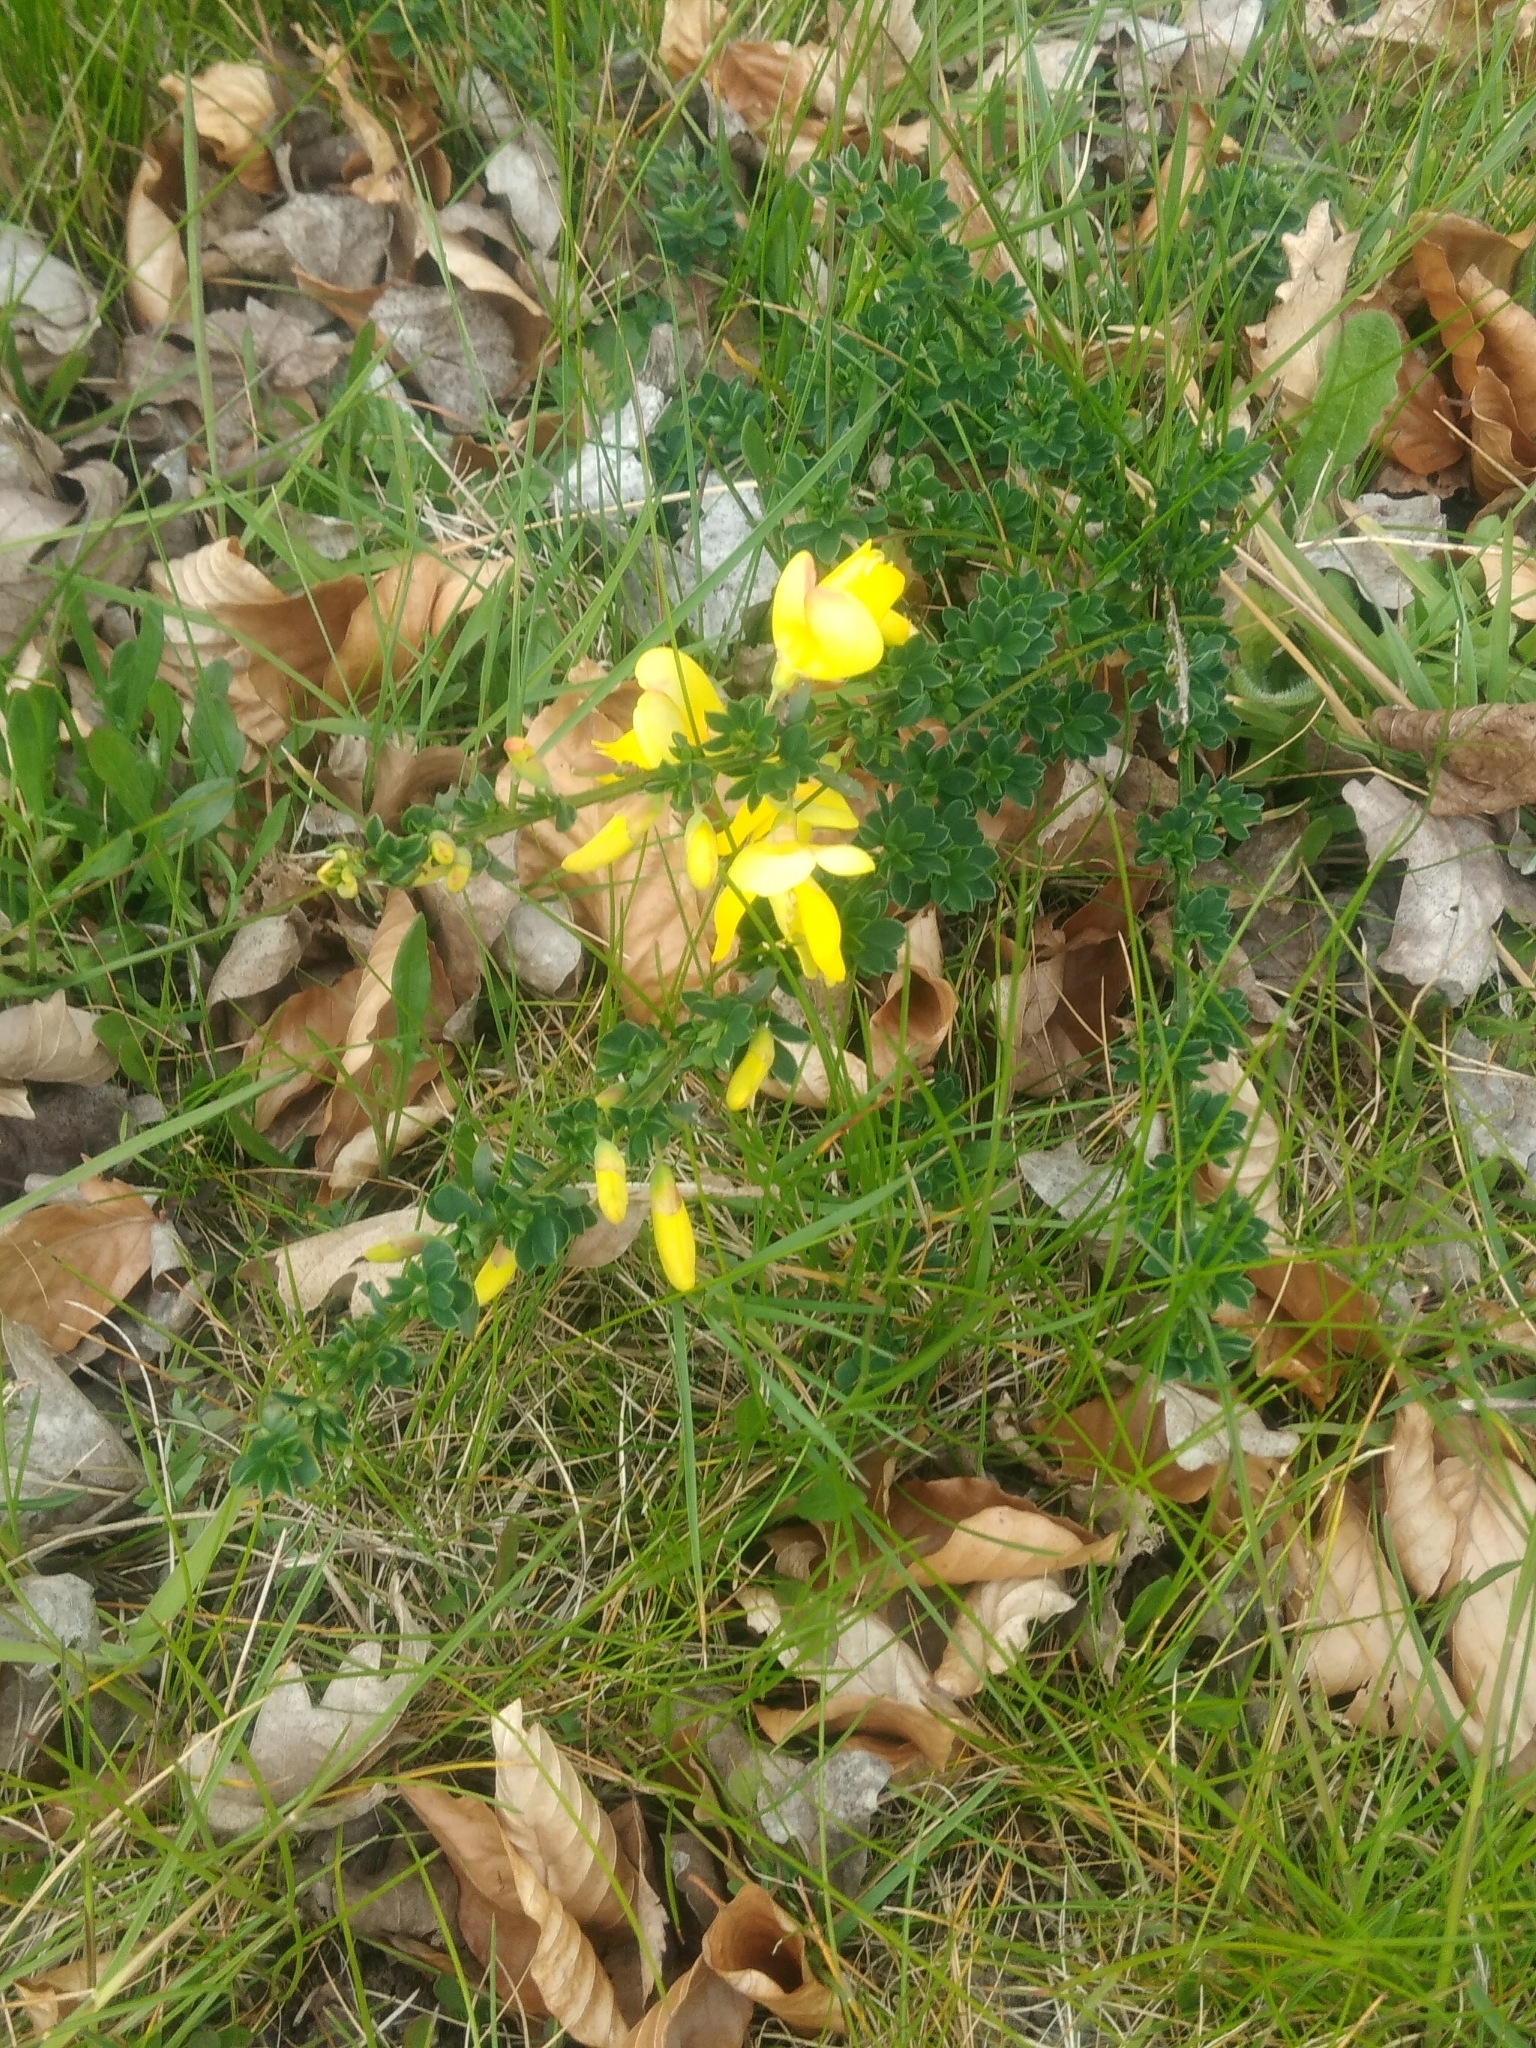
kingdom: Plantae
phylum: Tracheophyta
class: Magnoliopsida
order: Fabales
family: Fabaceae
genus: Cytisus
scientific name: Cytisus scoparius
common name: Scotch broom
